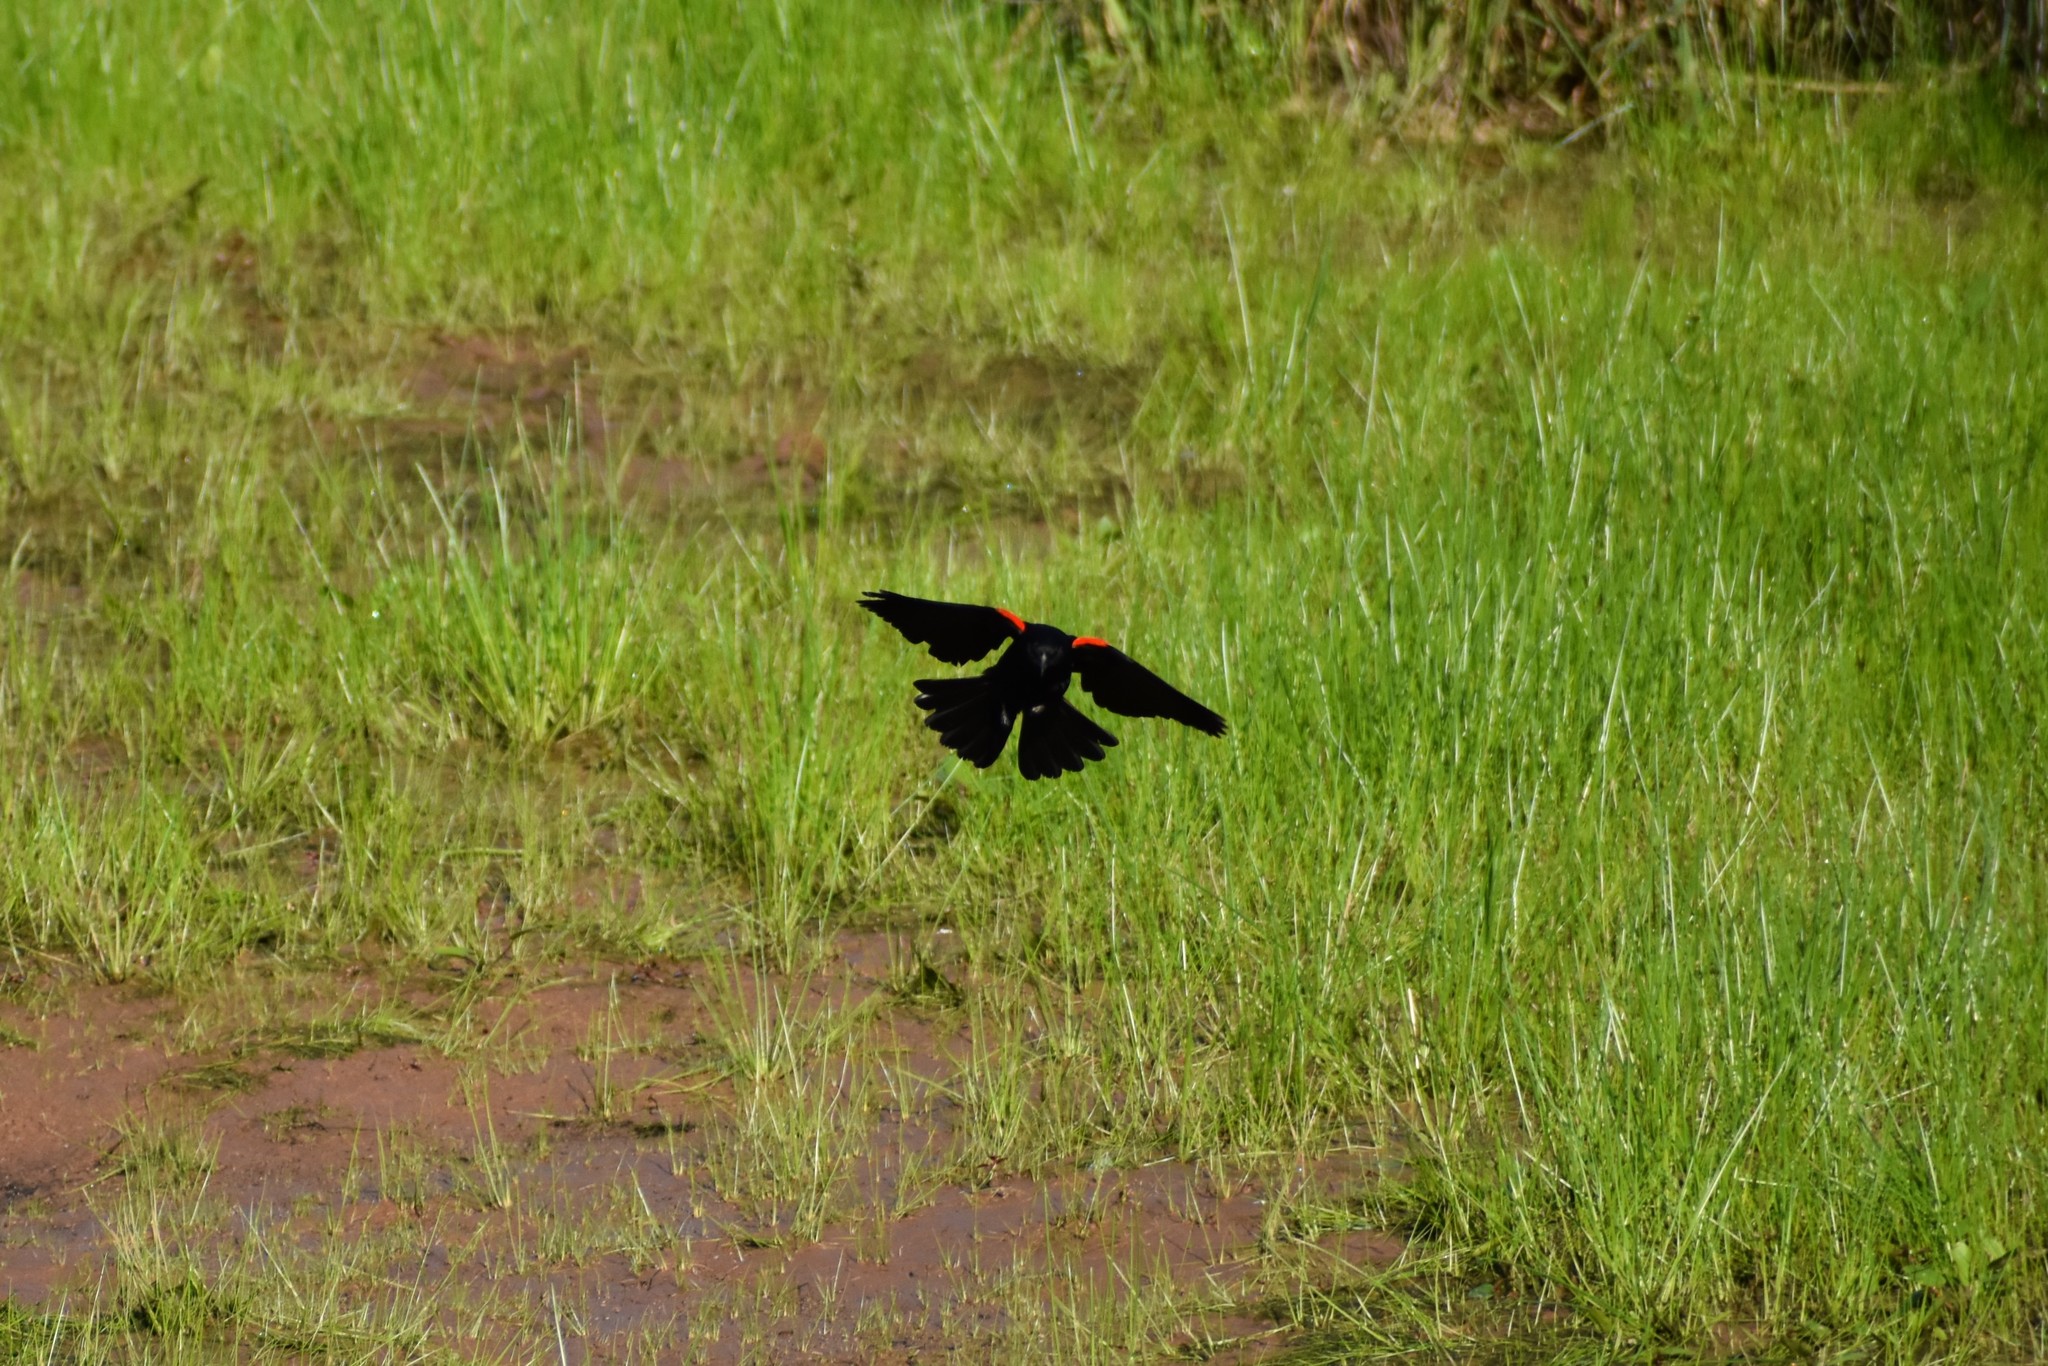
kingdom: Animalia
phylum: Chordata
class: Aves
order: Passeriformes
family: Icteridae
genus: Agelaius
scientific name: Agelaius phoeniceus
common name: Red-winged blackbird
